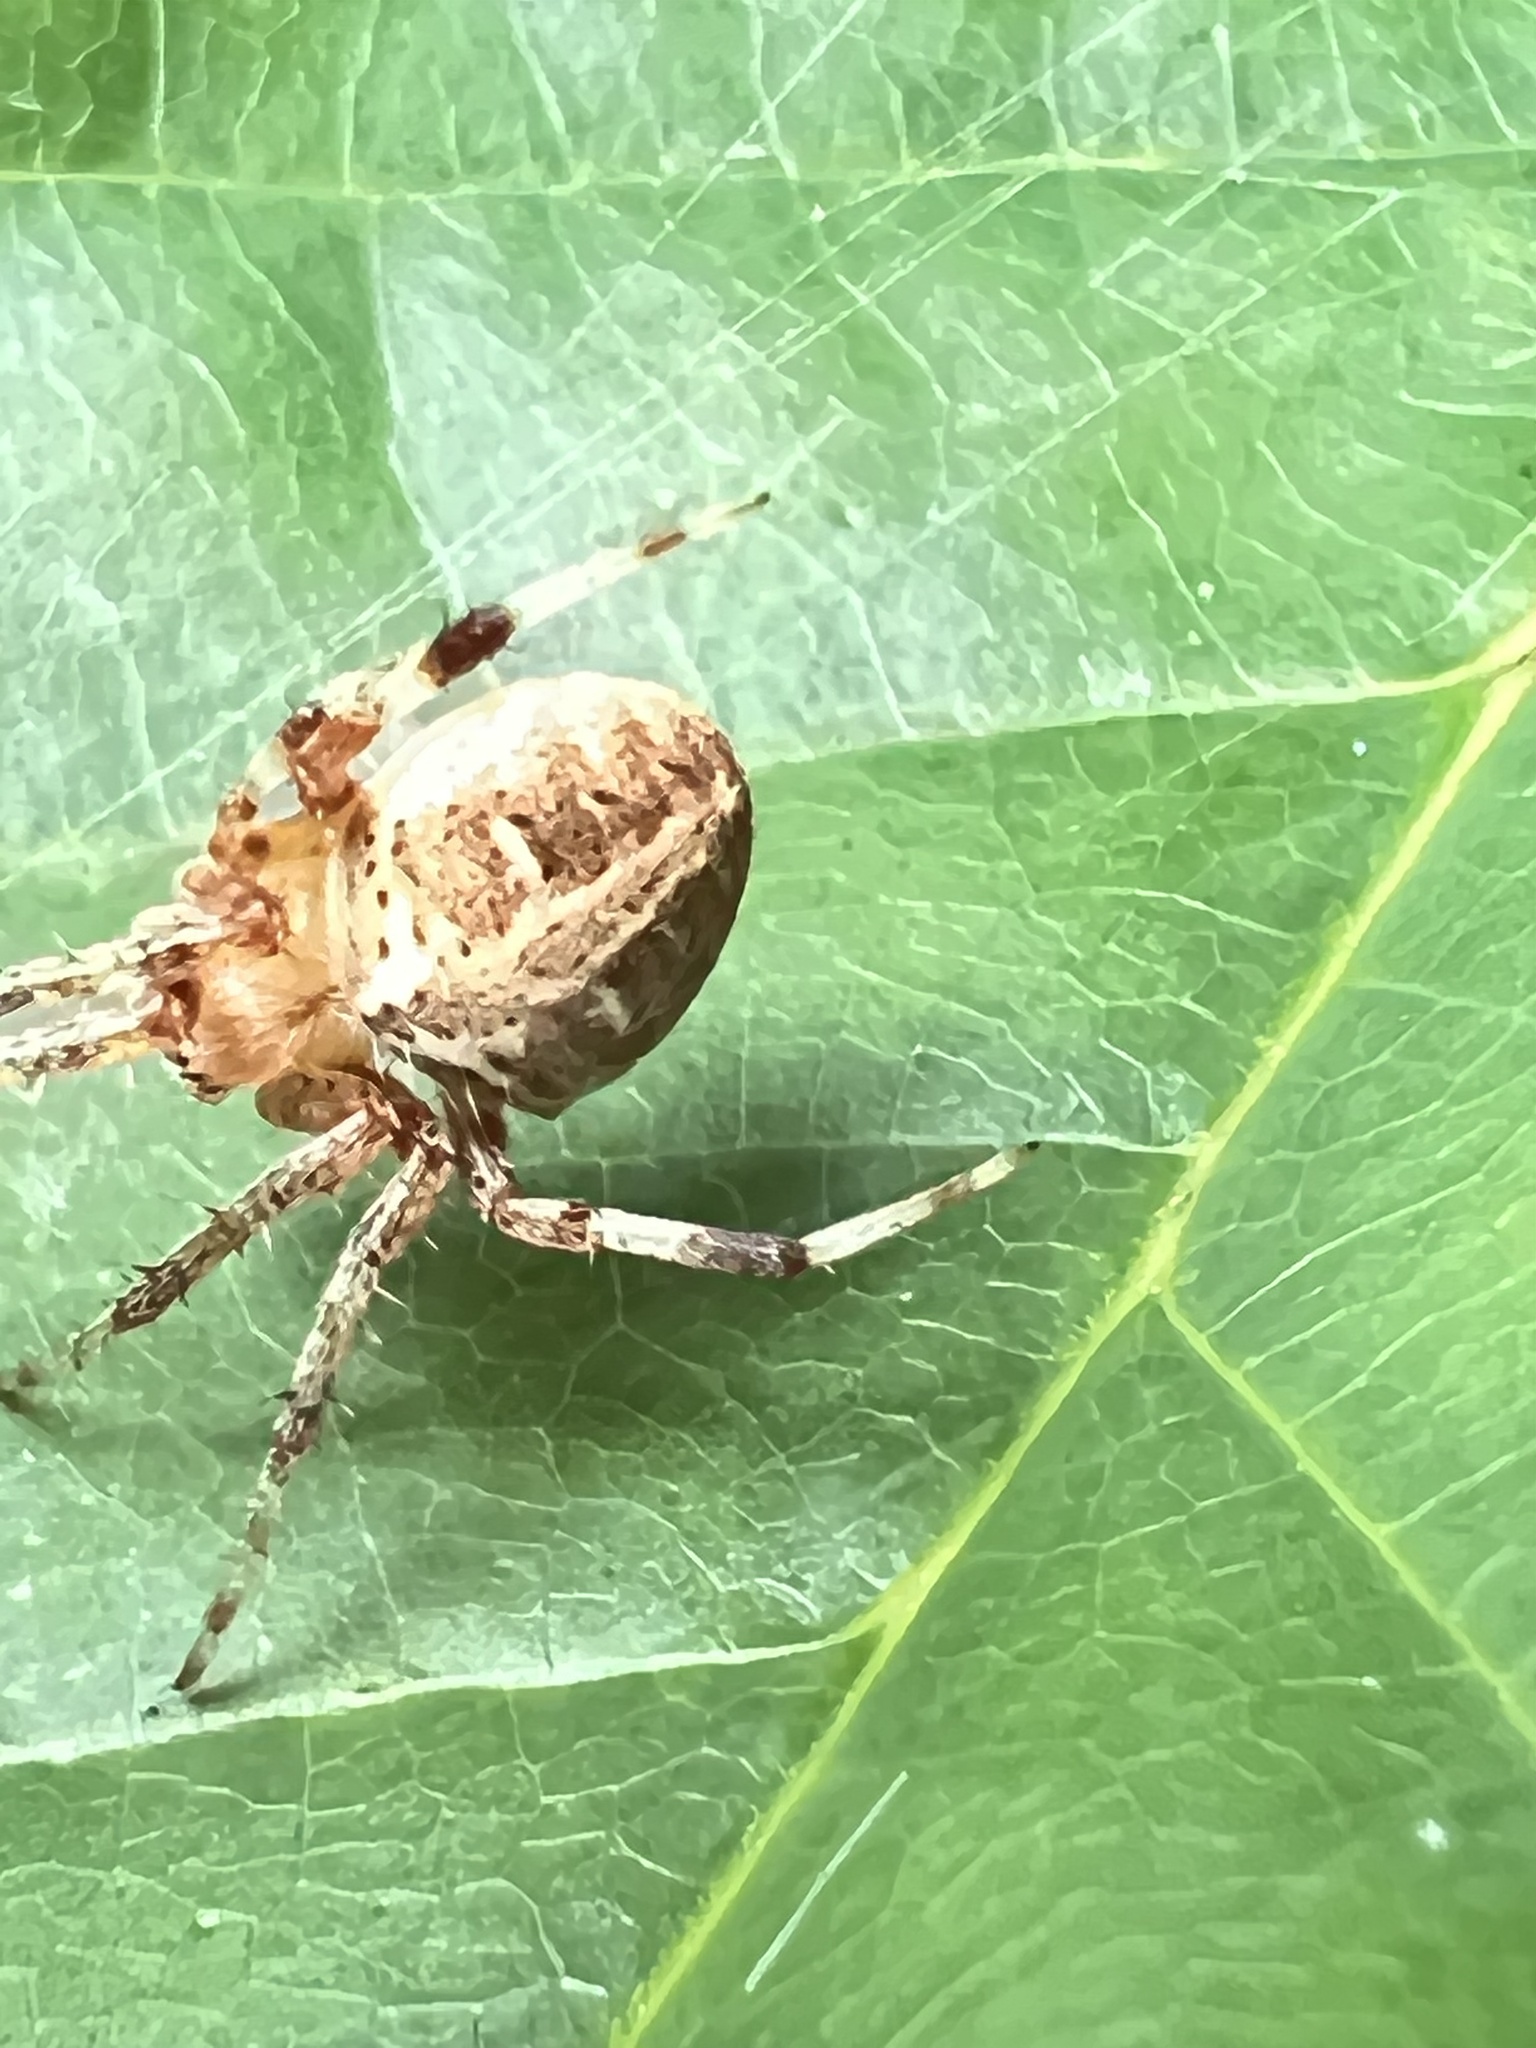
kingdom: Animalia
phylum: Arthropoda
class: Arachnida
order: Araneae
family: Araneidae
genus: Neoscona
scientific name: Neoscona arabesca
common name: Orb weavers
